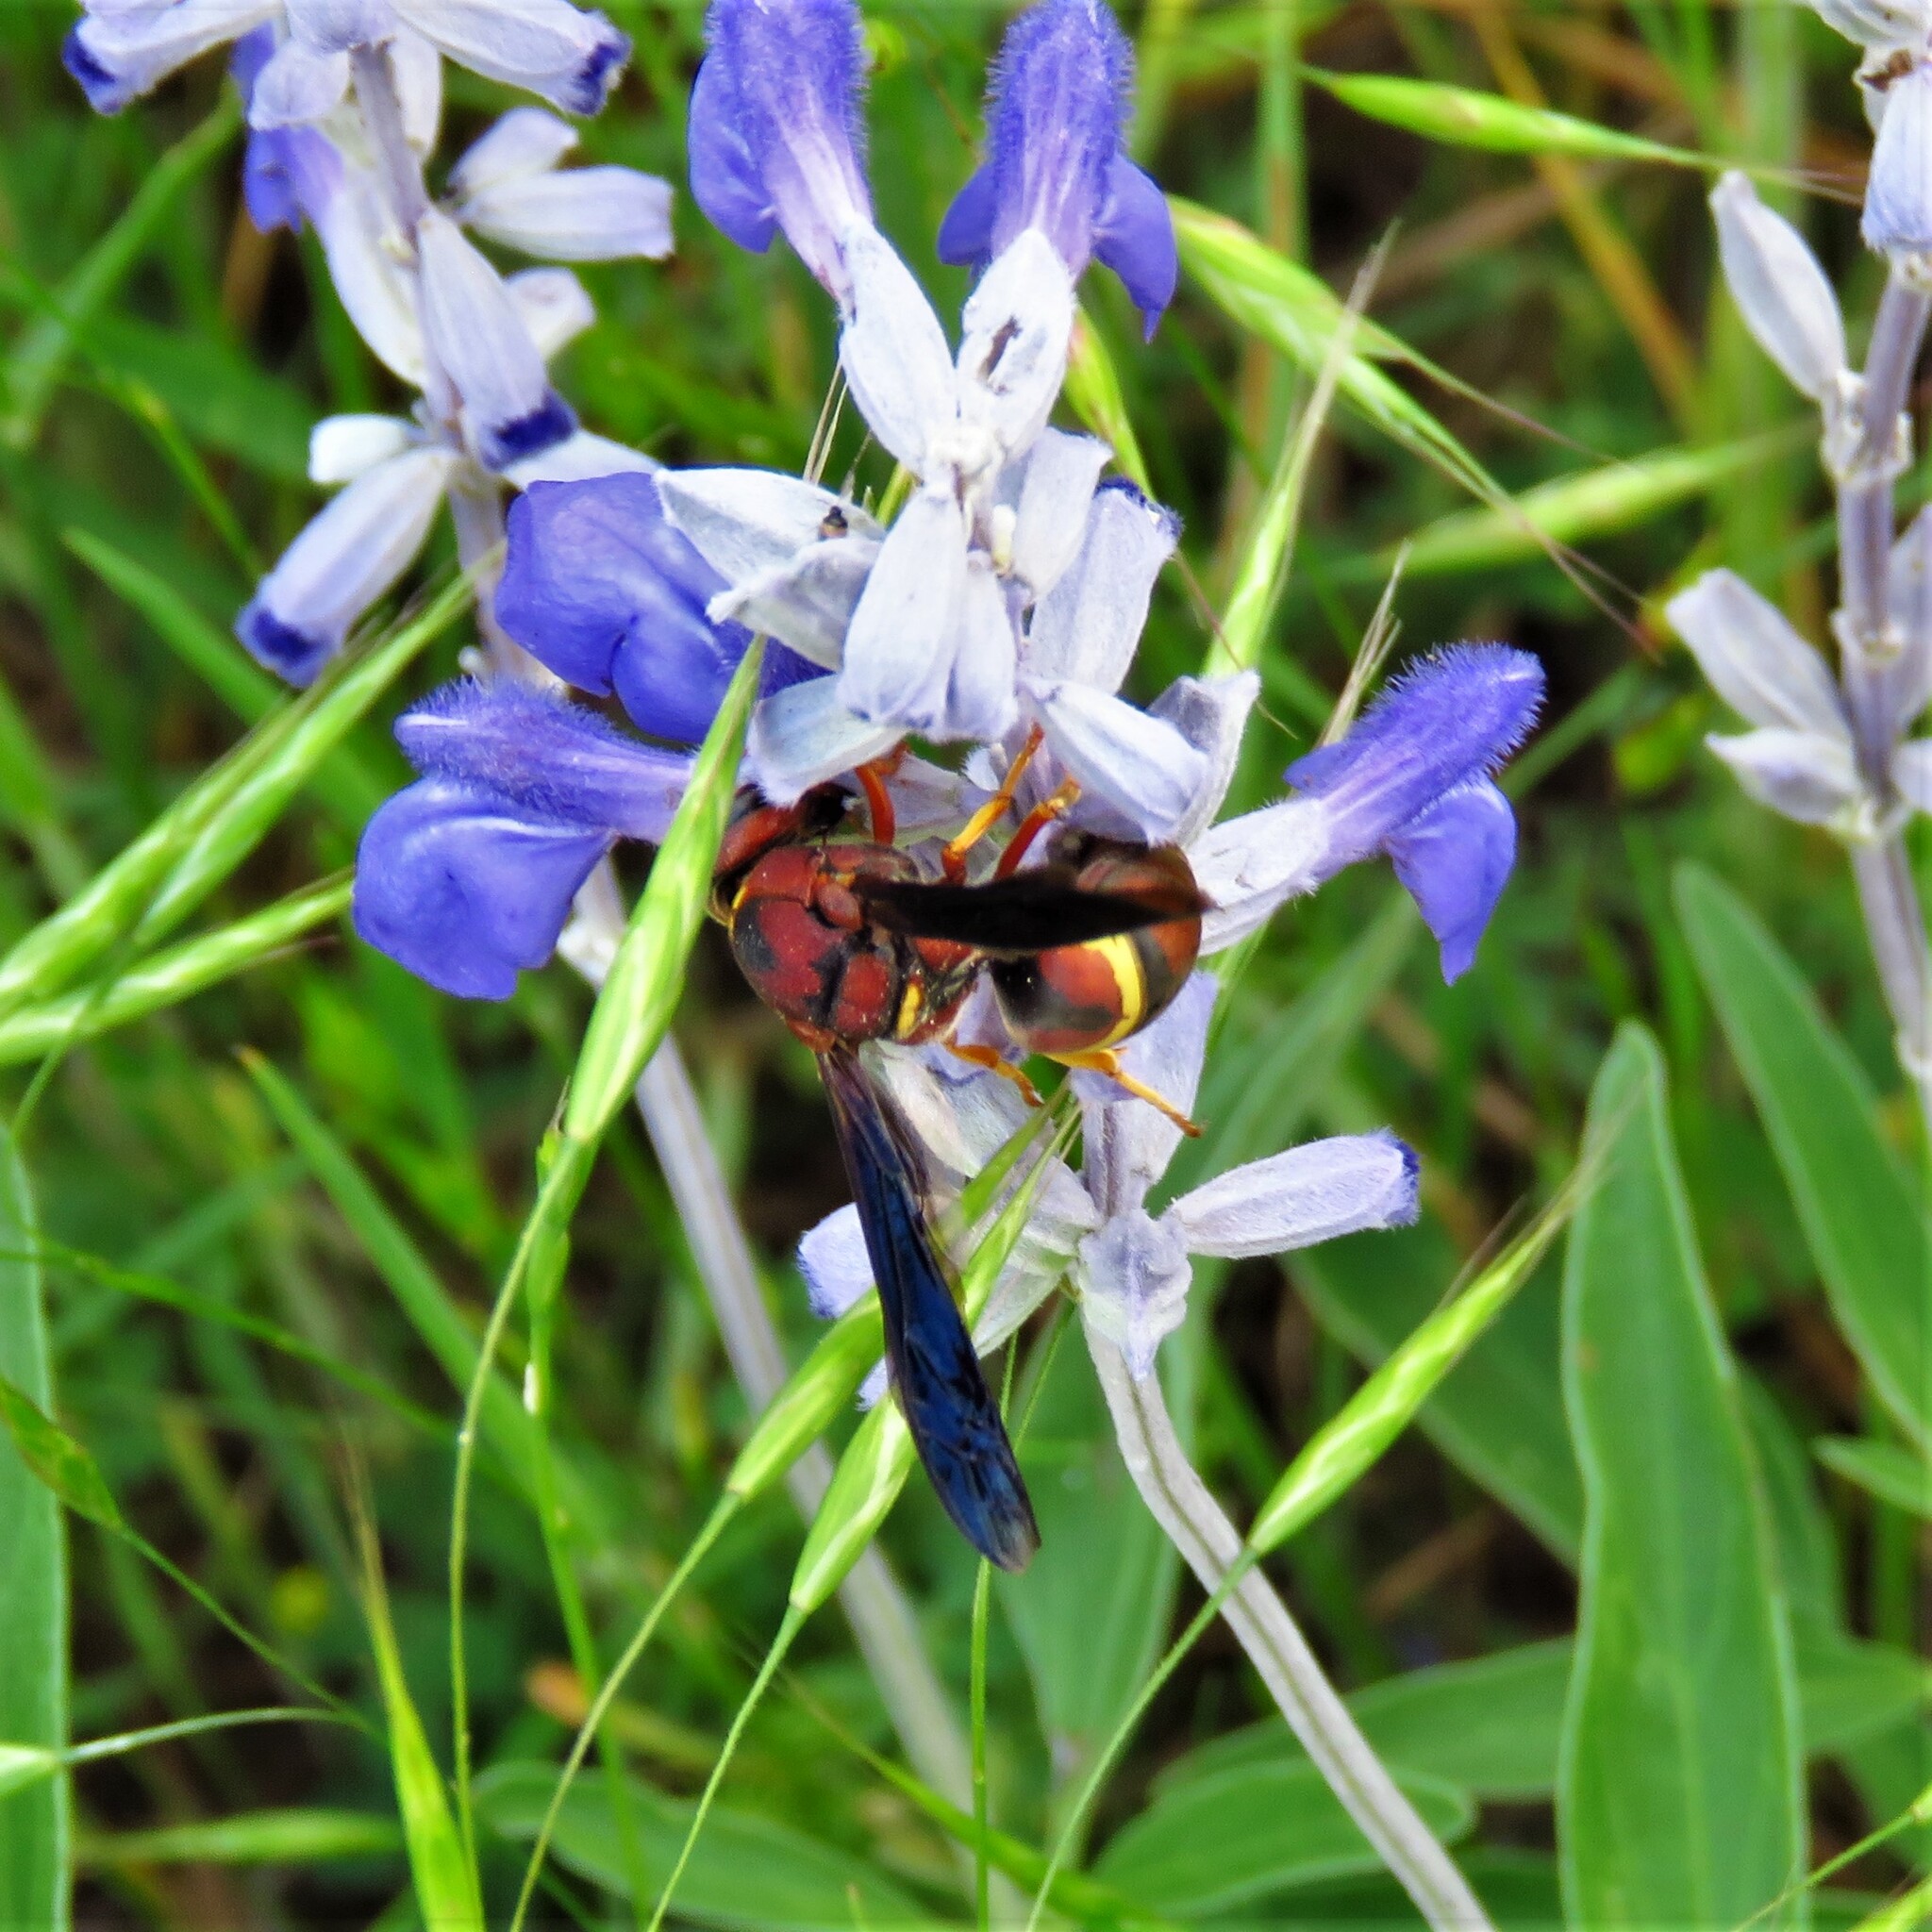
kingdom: Animalia
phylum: Arthropoda
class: Insecta
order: Hymenoptera
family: Eumenidae
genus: Euodynerus
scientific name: Euodynerus crypticus
